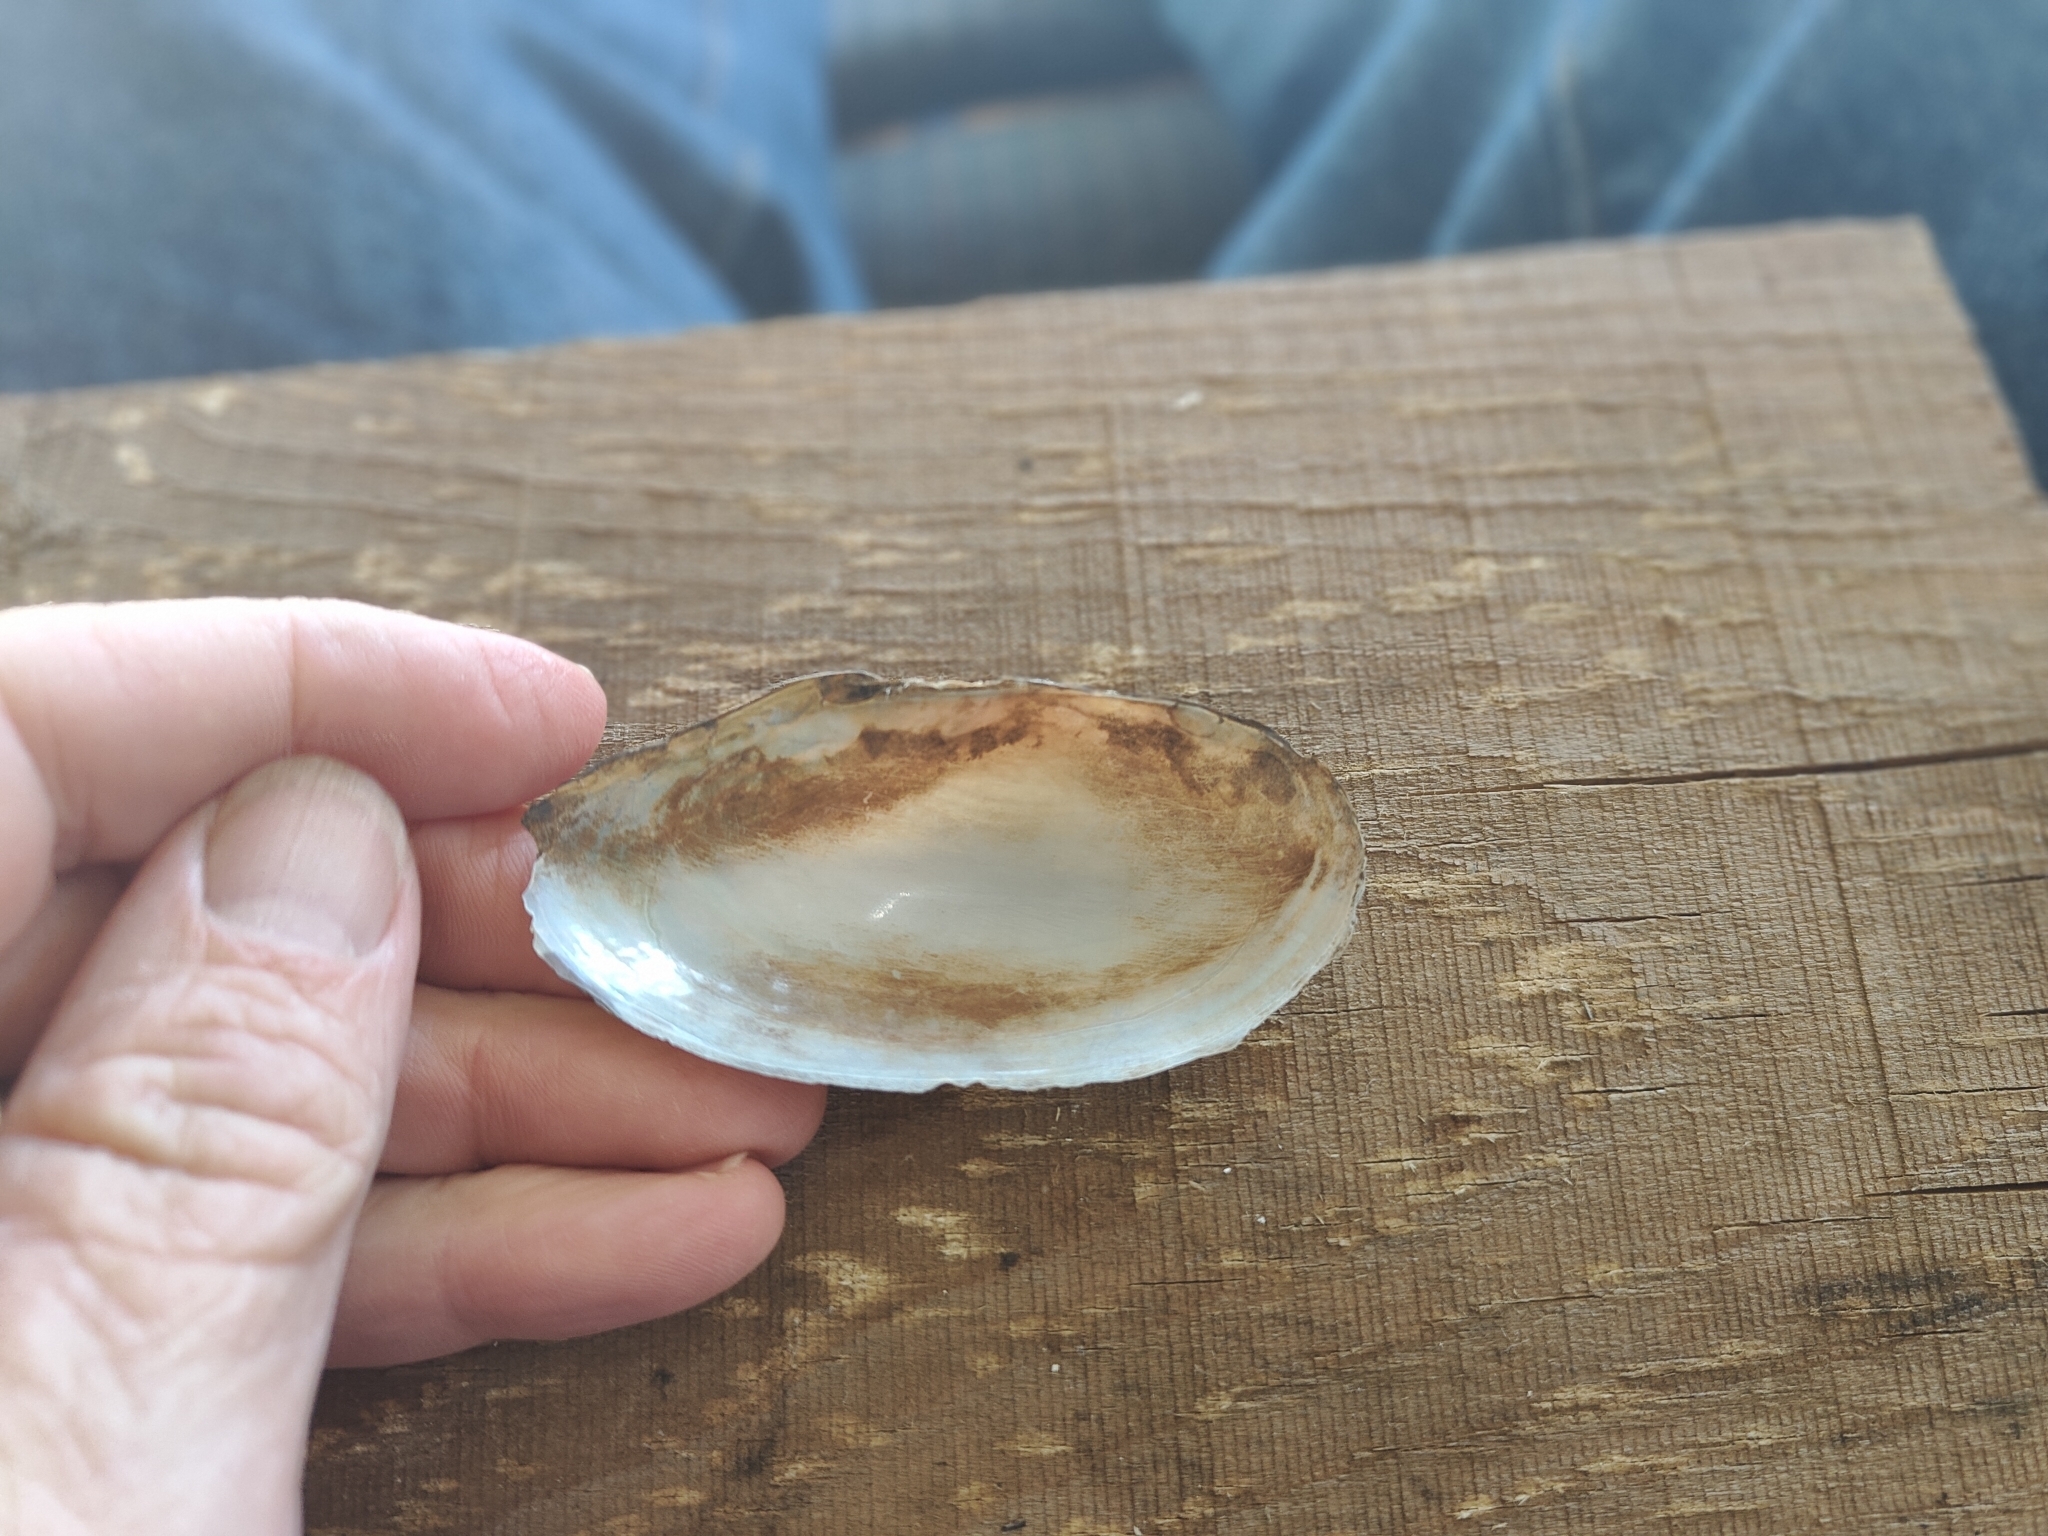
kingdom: Animalia
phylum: Mollusca
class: Bivalvia
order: Unionida
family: Unionidae
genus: Utterbackia
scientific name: Utterbackia imbecillis
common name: Paper pondshell
